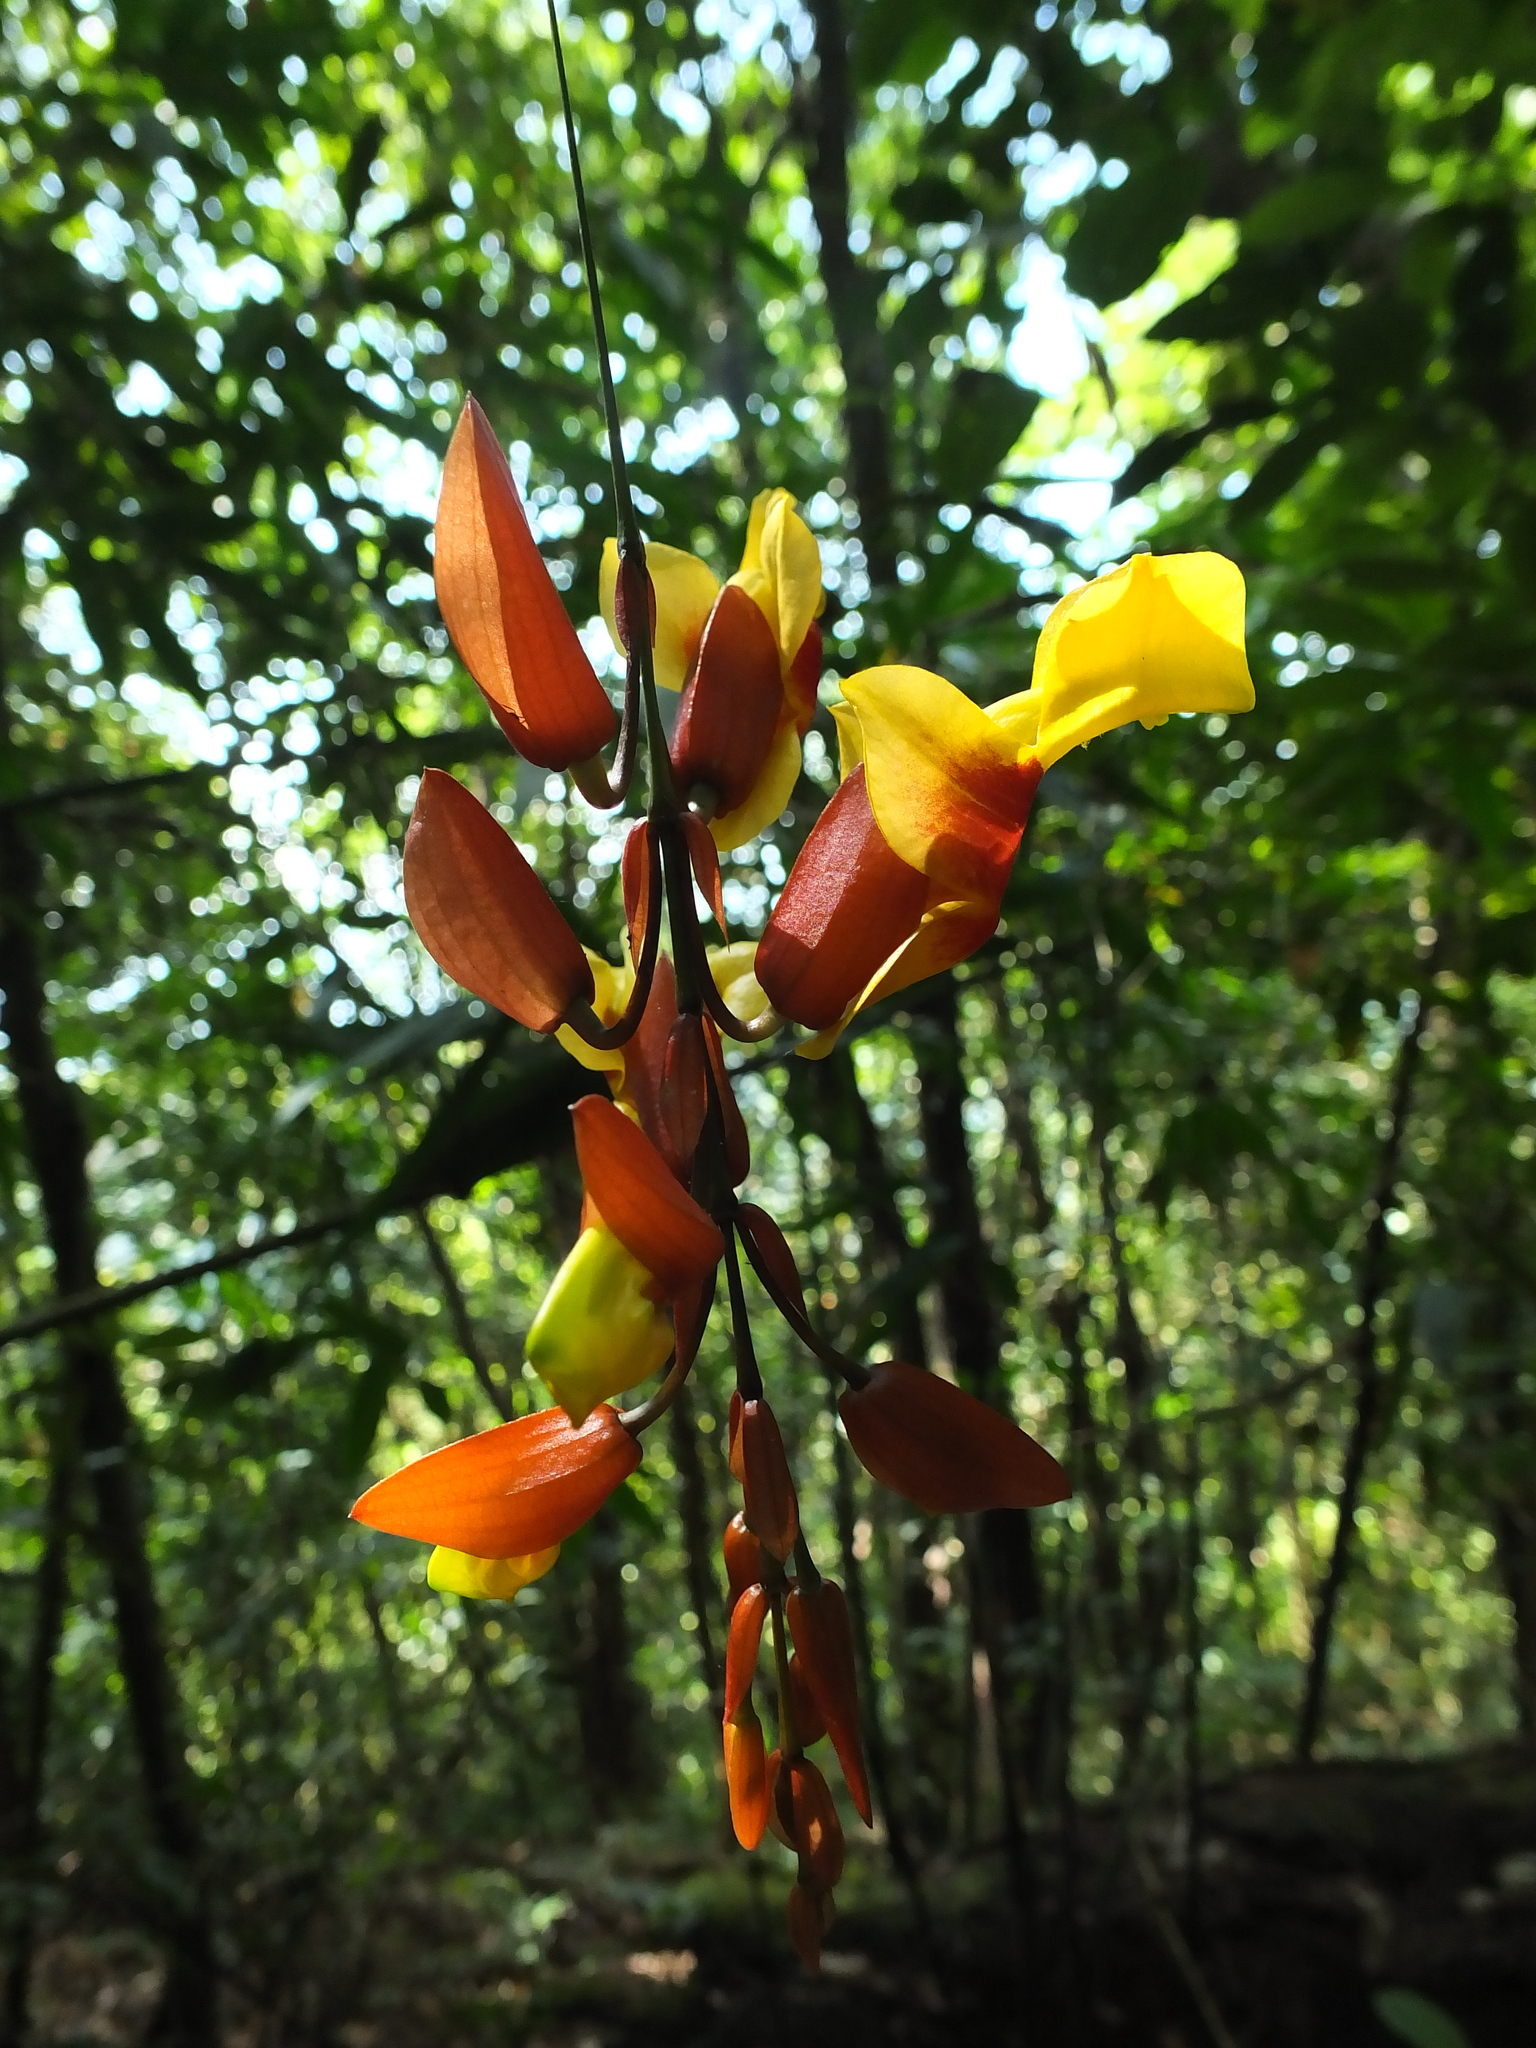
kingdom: Plantae
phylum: Tracheophyta
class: Magnoliopsida
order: Lamiales
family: Acanthaceae
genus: Thunbergia
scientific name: Thunbergia mysorensis
